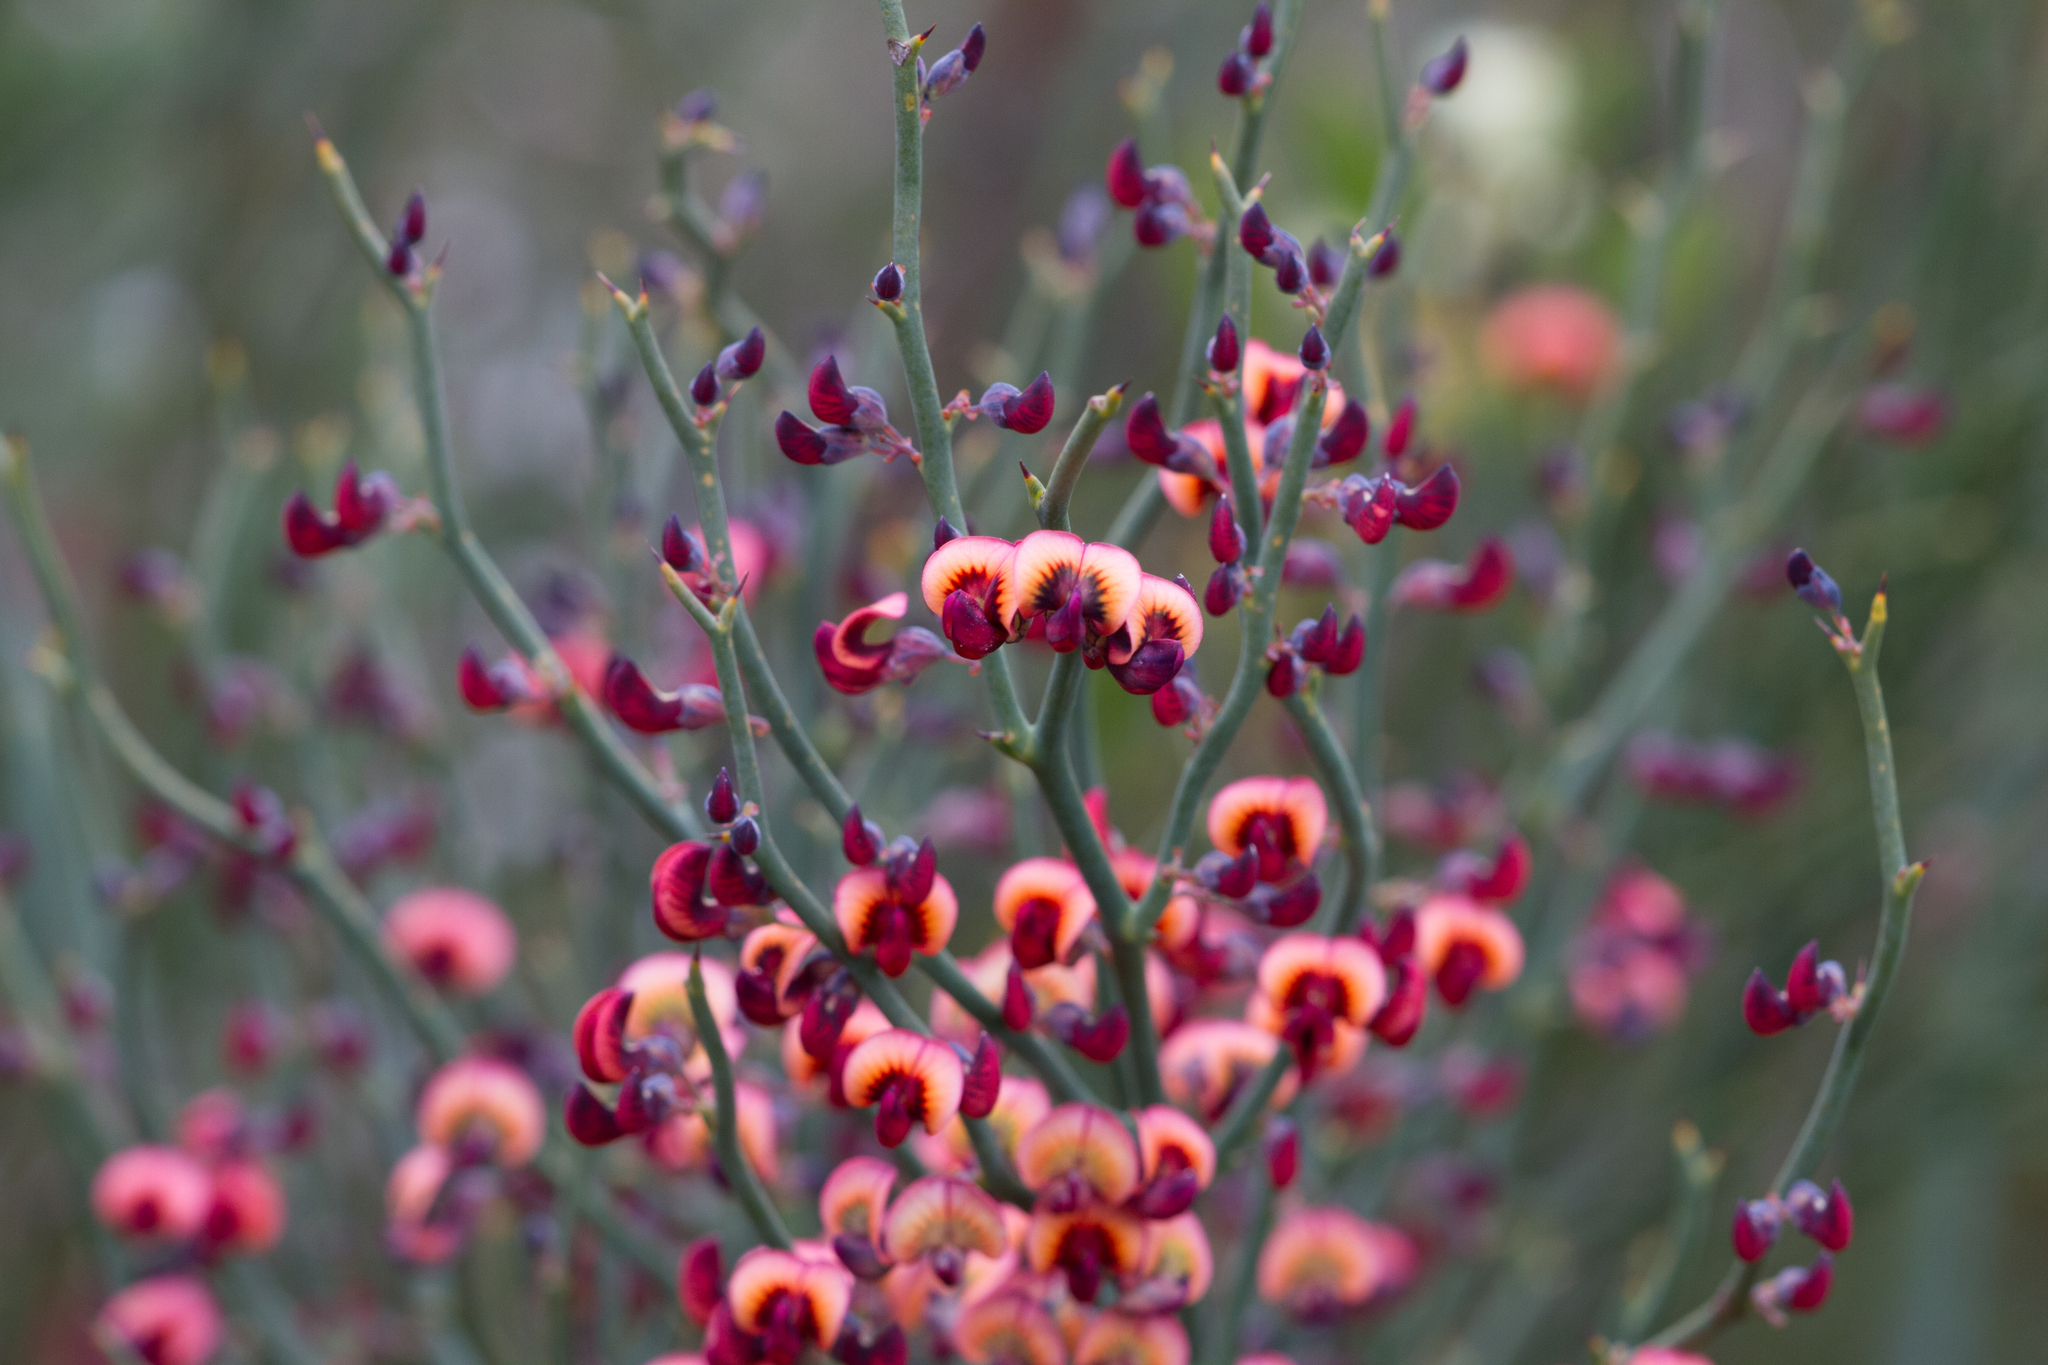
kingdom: Plantae
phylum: Tracheophyta
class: Magnoliopsida
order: Fabales
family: Fabaceae
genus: Daviesia
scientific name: Daviesia brevifolia
